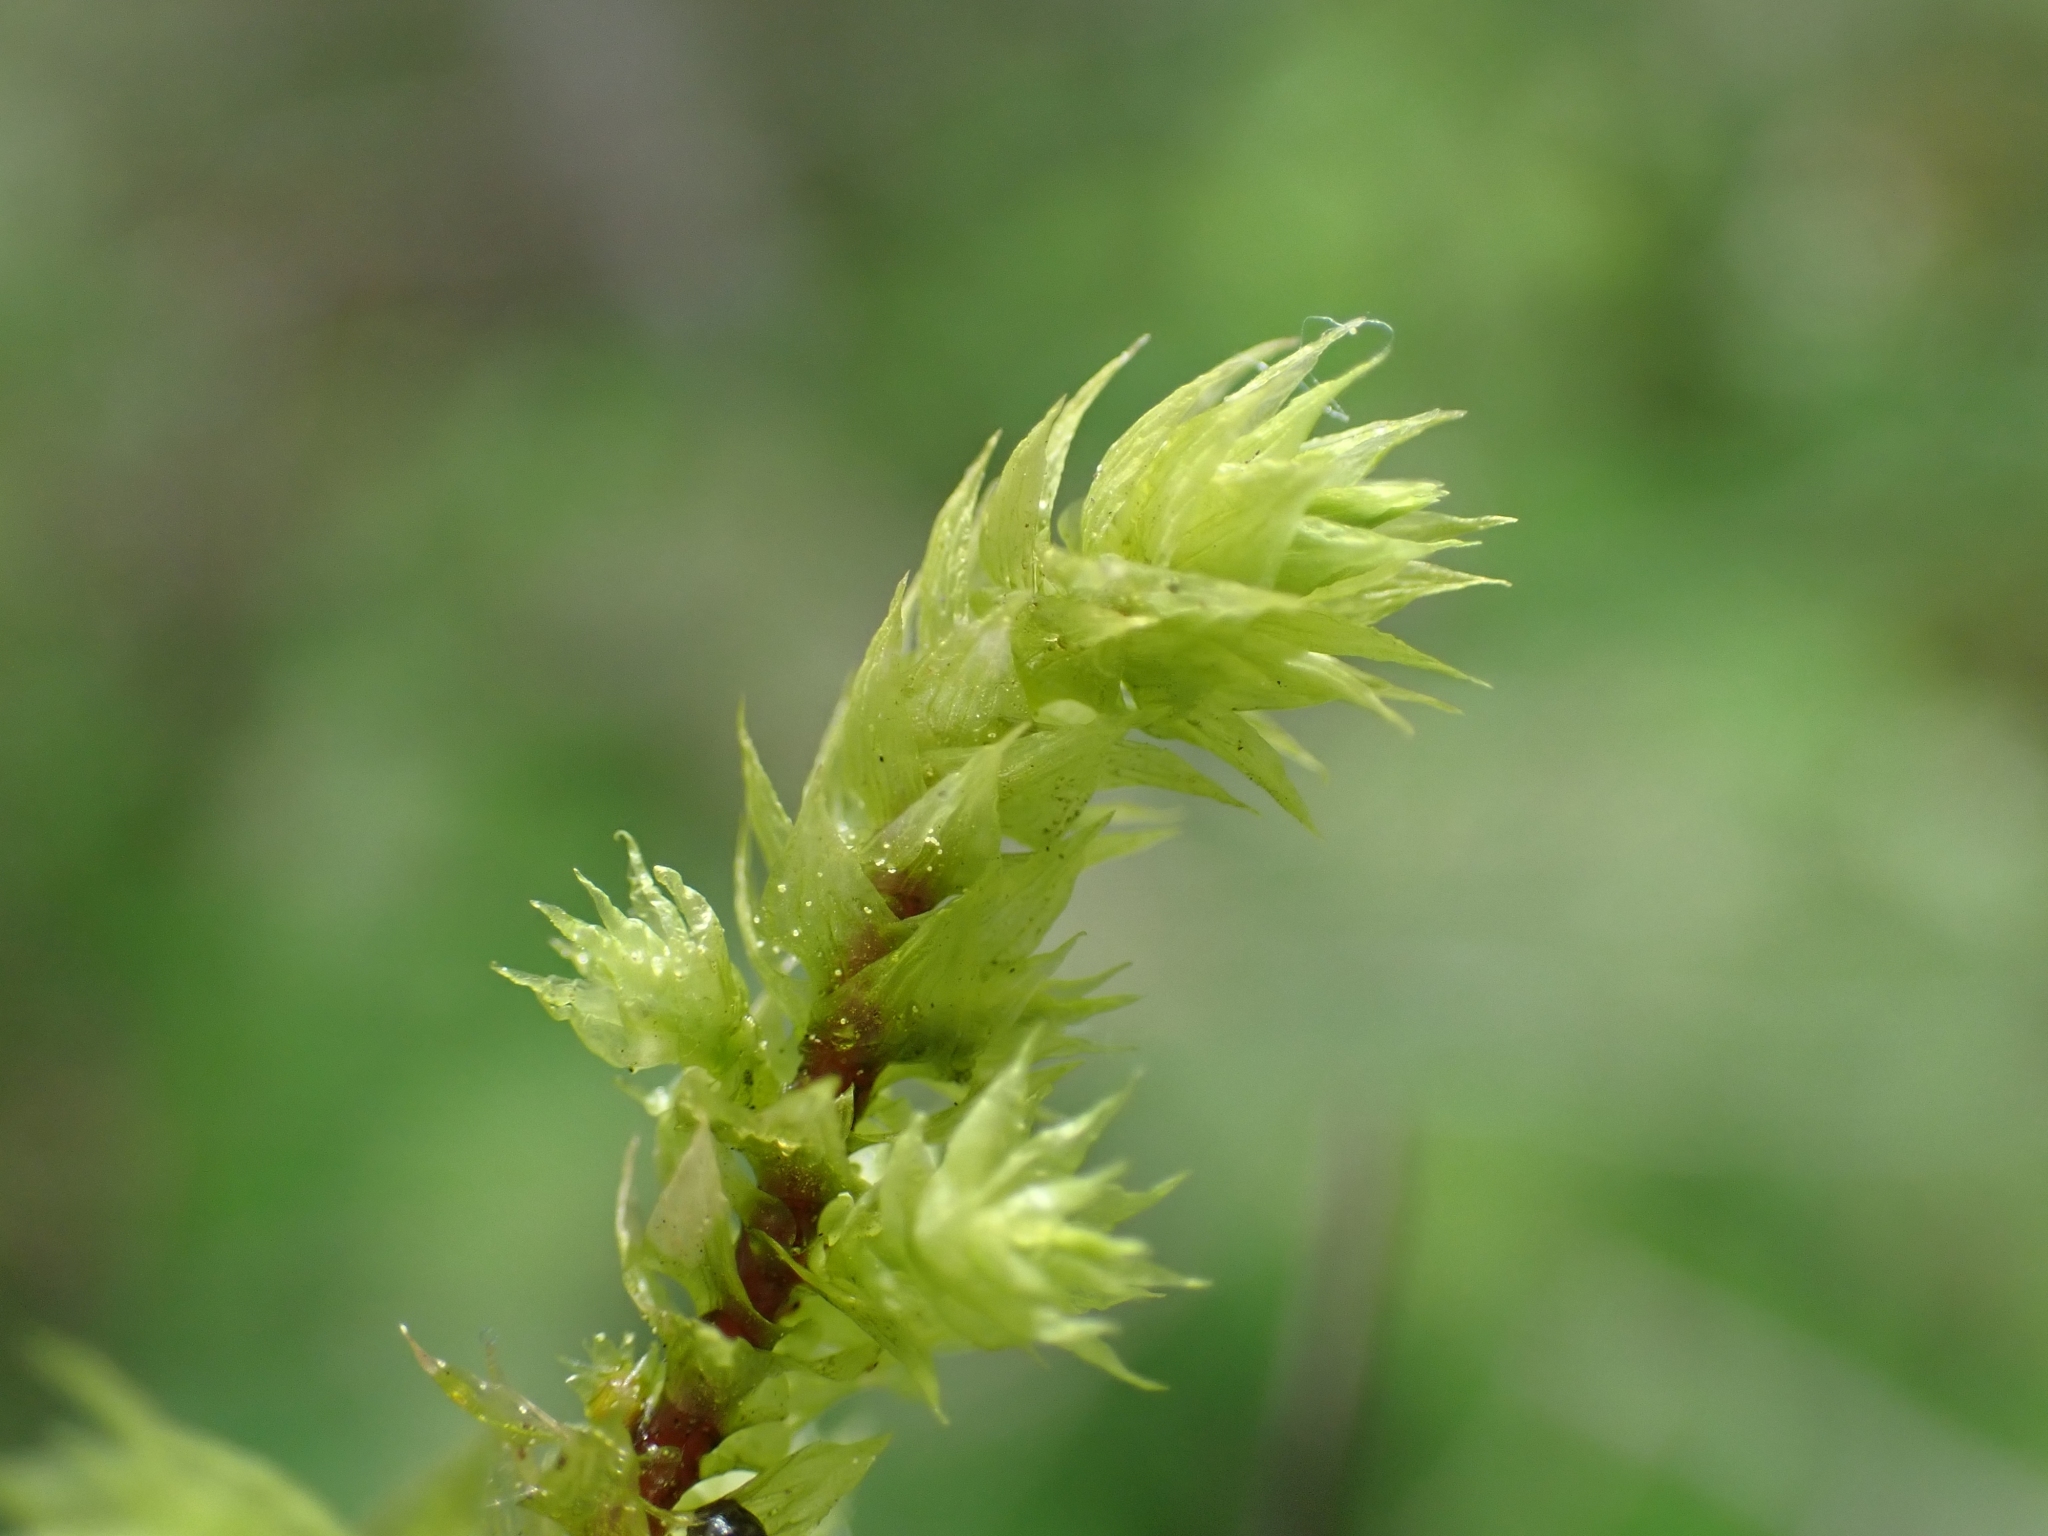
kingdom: Plantae
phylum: Bryophyta
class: Bryopsida
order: Hypnales
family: Hylocomiaceae
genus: Hylocomiadelphus
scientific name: Hylocomiadelphus triquetrus
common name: Rough goose neck moss
